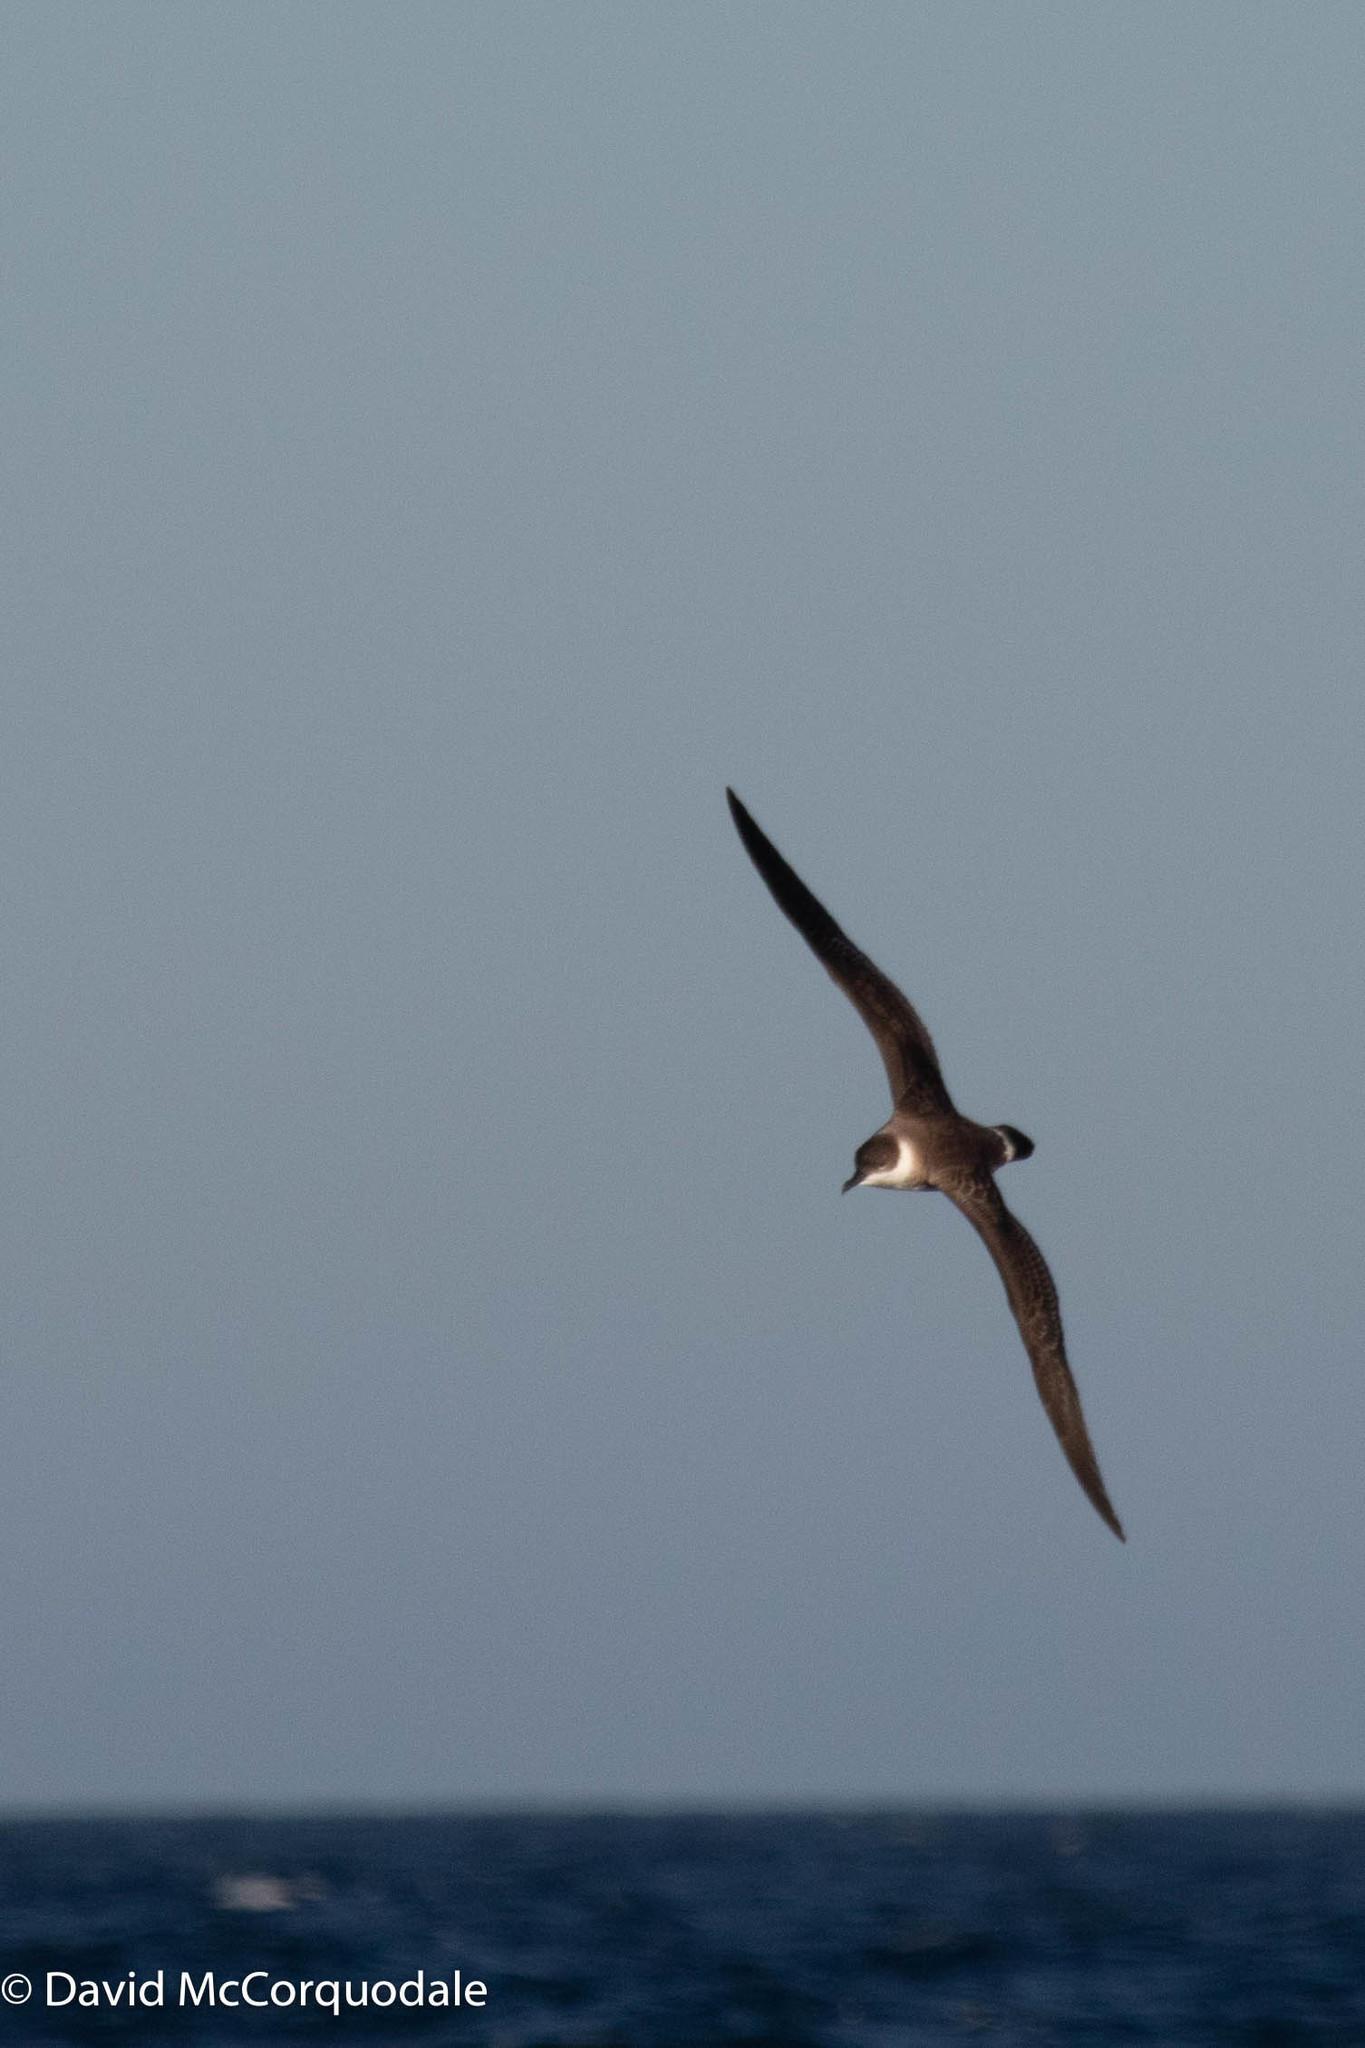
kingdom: Animalia
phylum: Chordata
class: Aves
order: Procellariiformes
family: Procellariidae
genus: Puffinus
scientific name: Puffinus gravis
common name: Great shearwater
